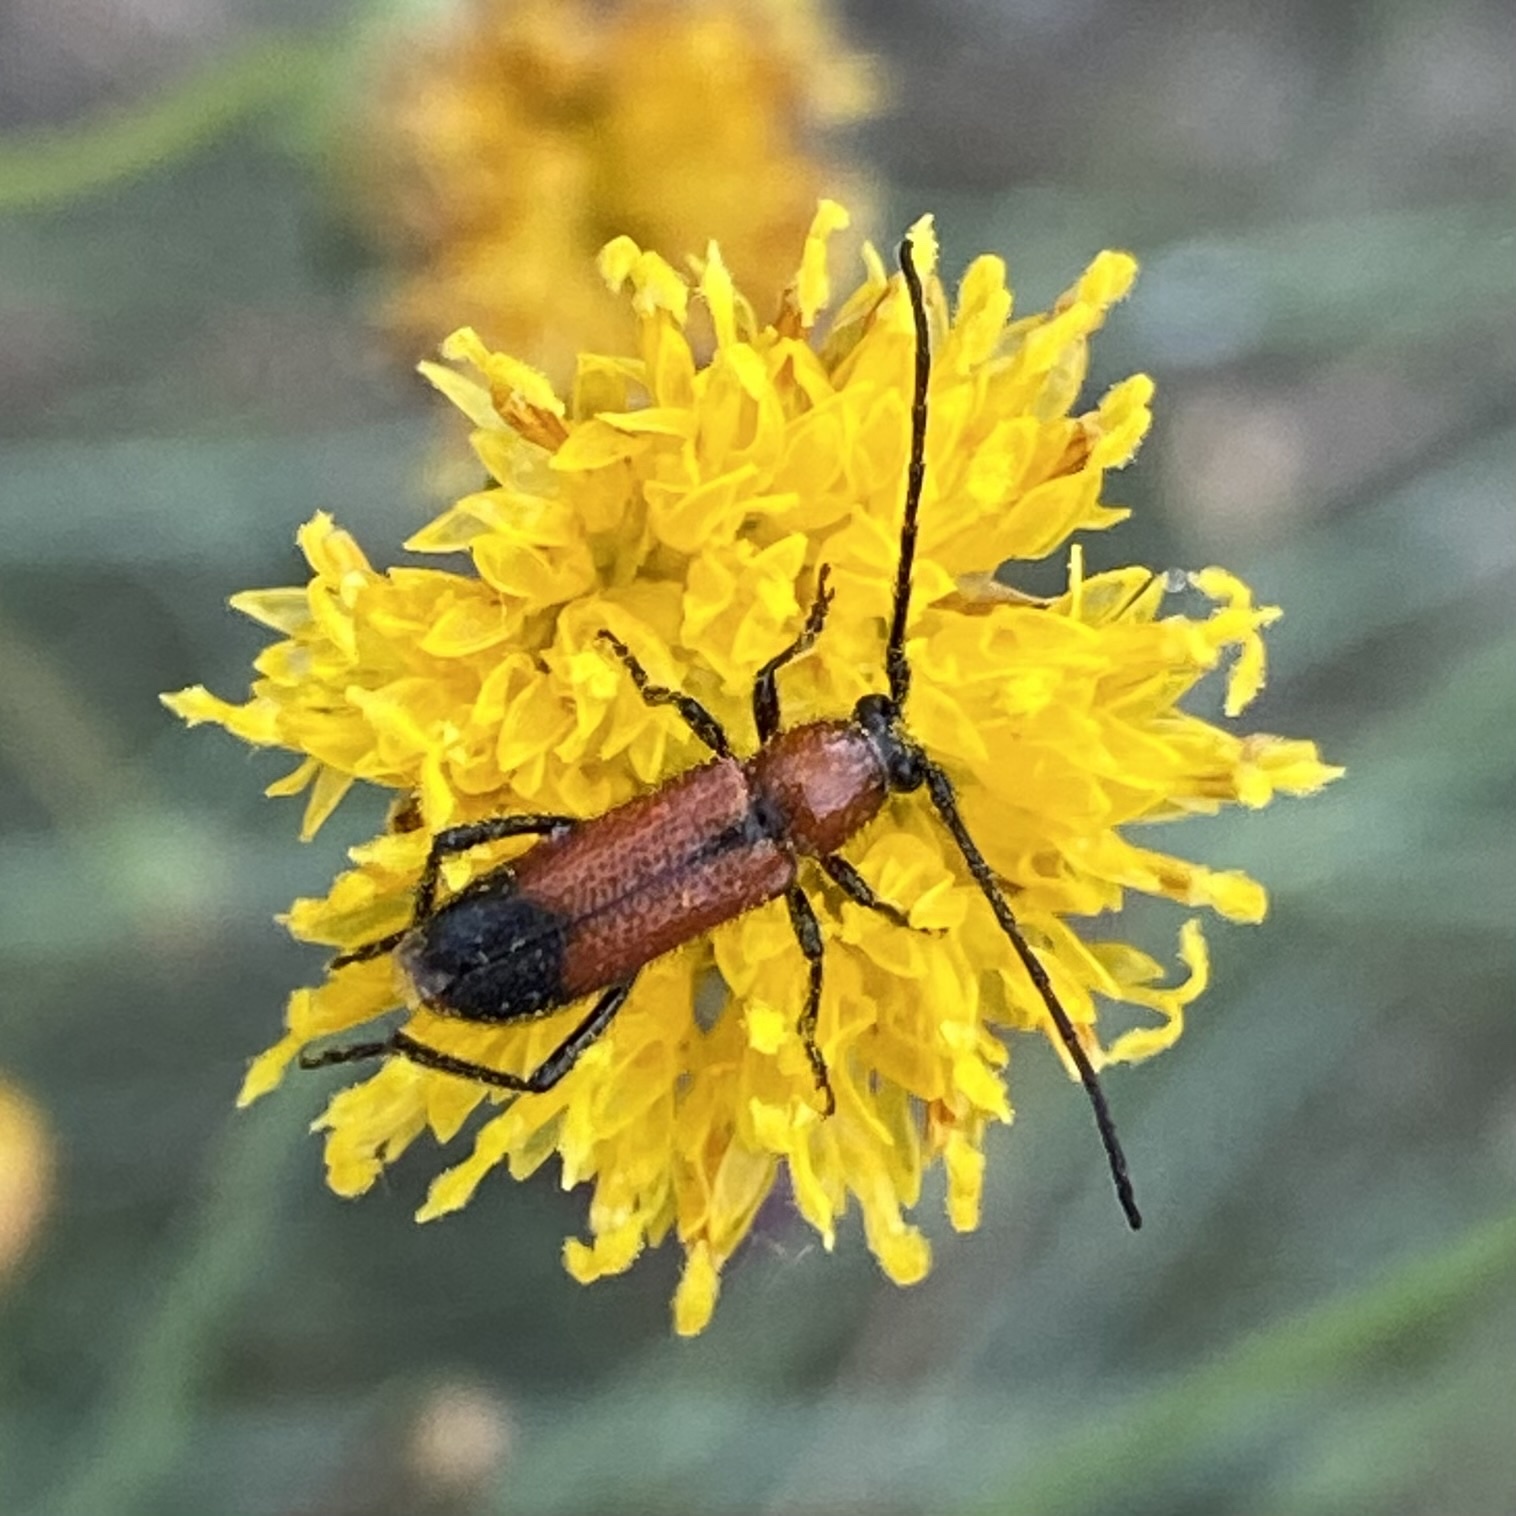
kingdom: Animalia
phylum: Arthropoda
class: Insecta
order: Coleoptera
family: Cerambycidae
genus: Batyle
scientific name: Batyle suturalis
